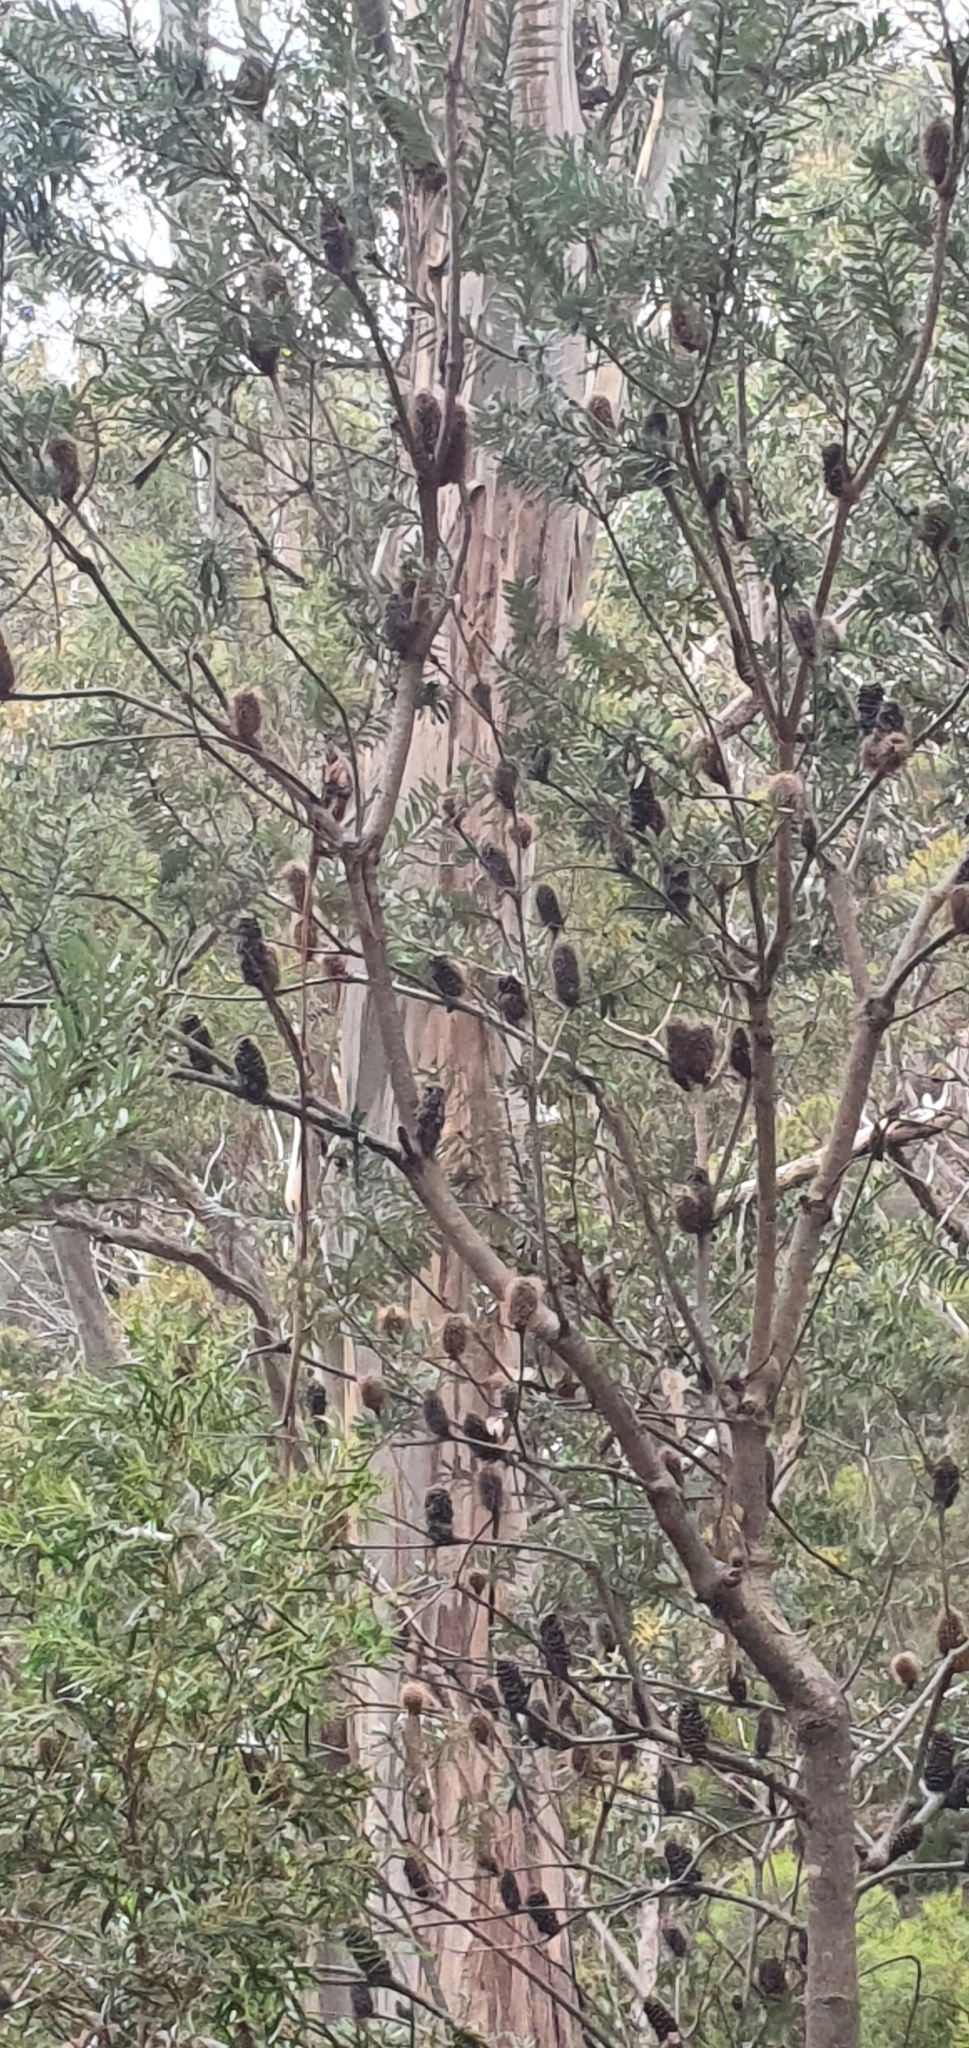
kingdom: Plantae
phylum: Tracheophyta
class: Magnoliopsida
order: Proteales
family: Proteaceae
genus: Banksia
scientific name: Banksia marginata
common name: Silver banksia
